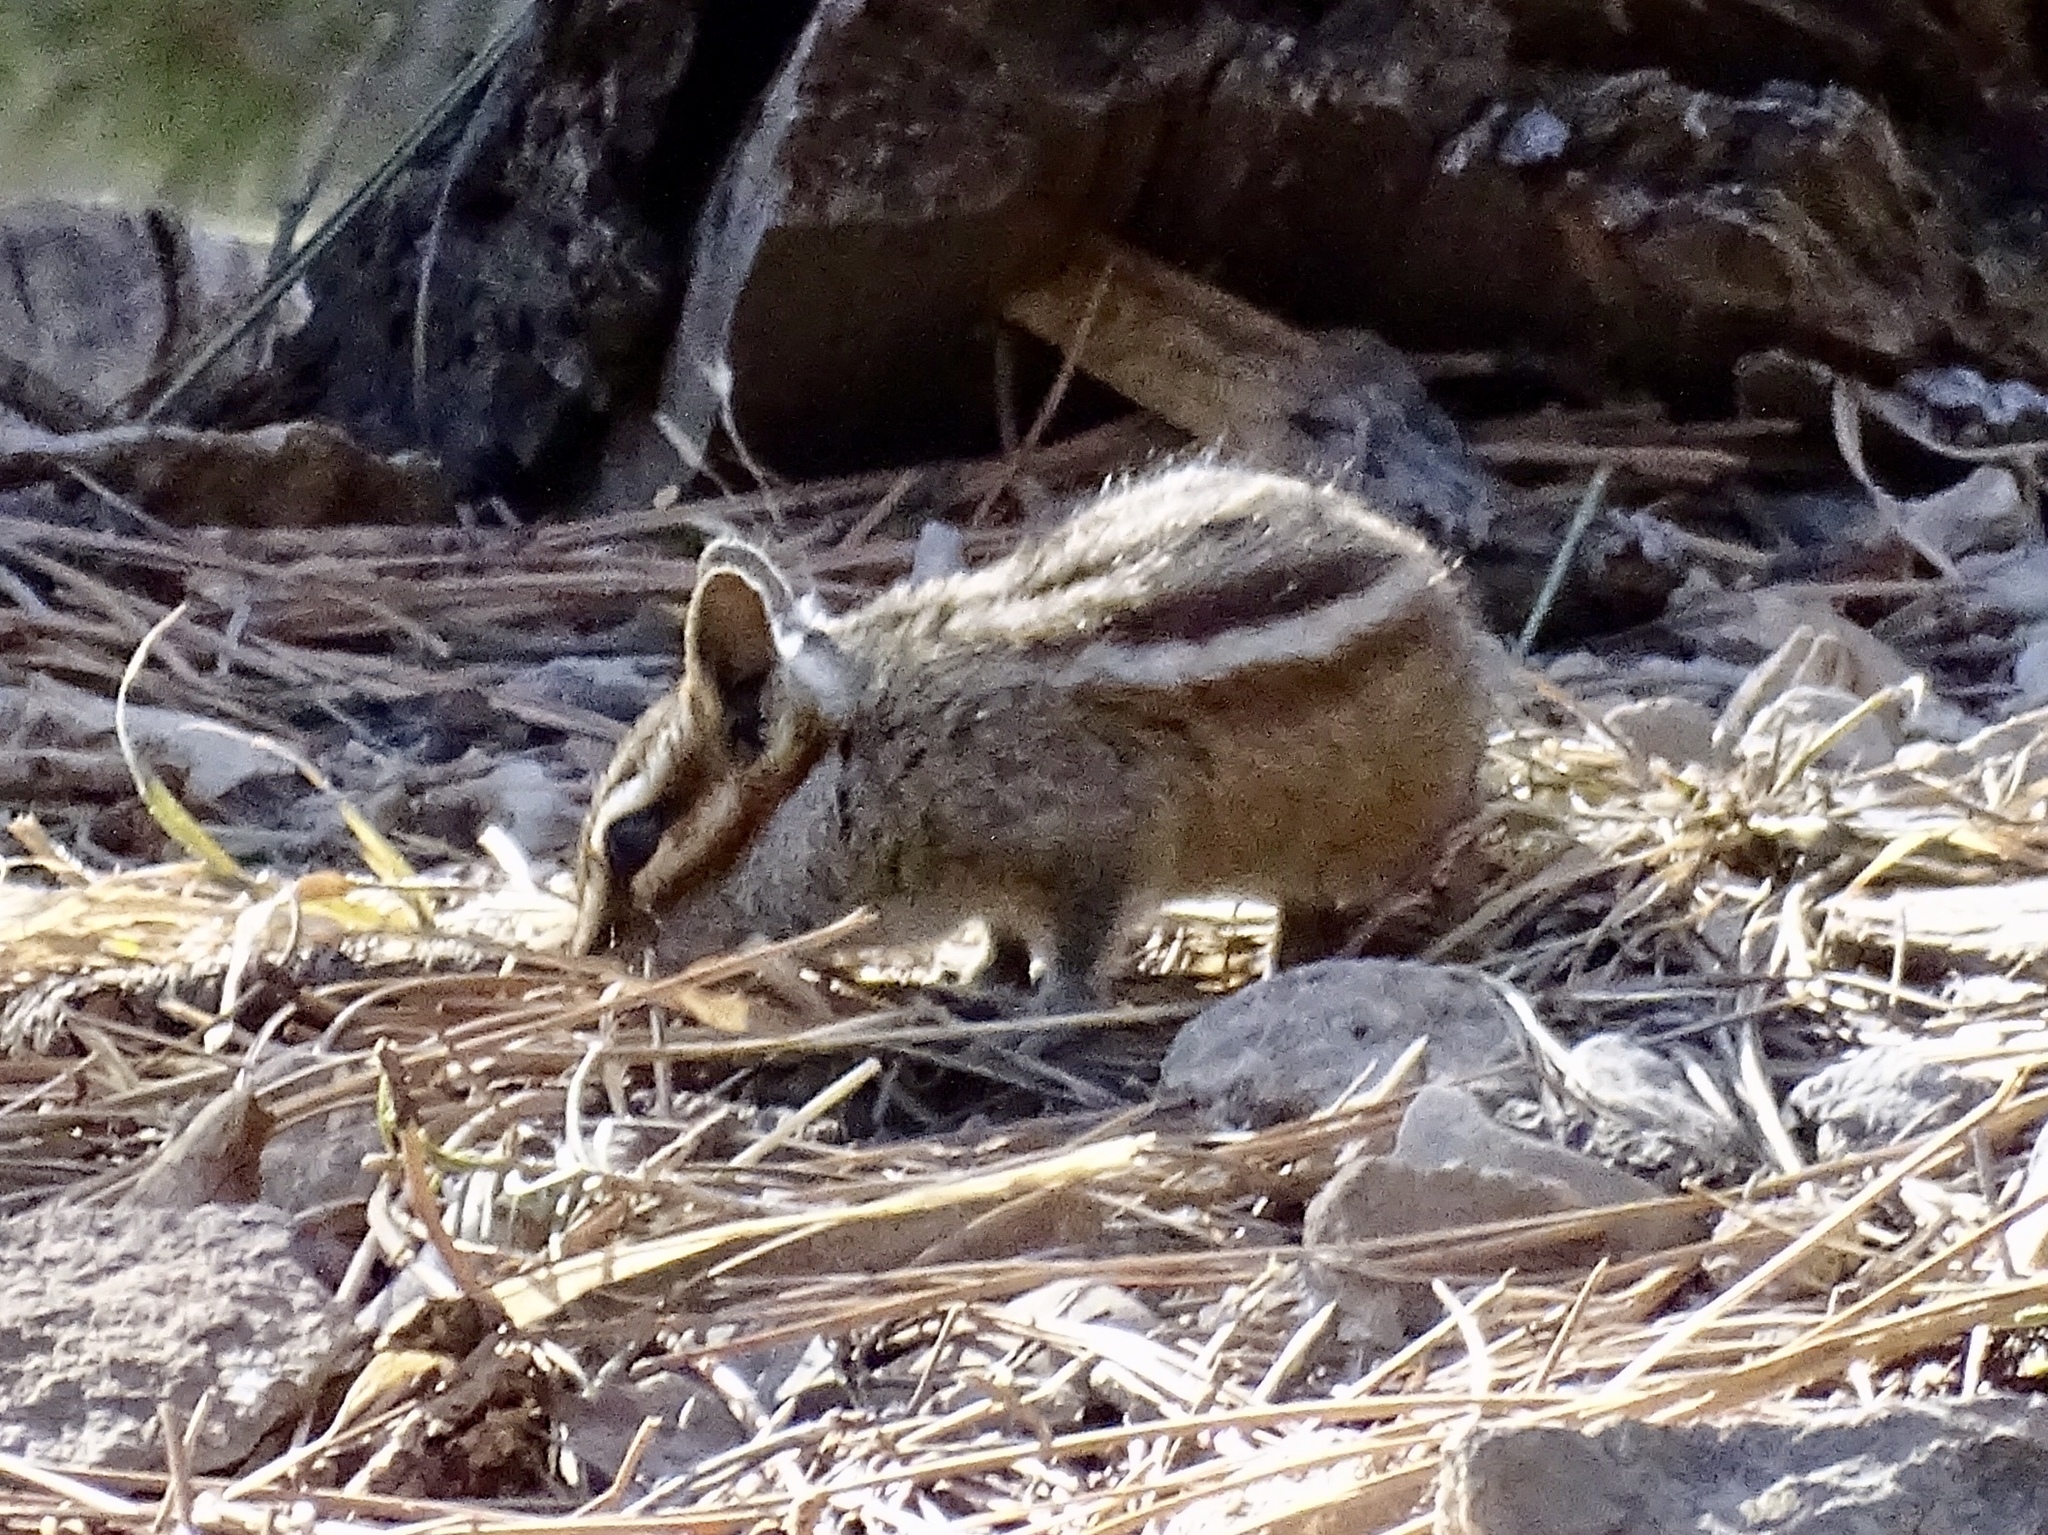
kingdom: Animalia
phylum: Chordata
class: Mammalia
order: Rodentia
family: Sciuridae
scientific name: Sciuridae
